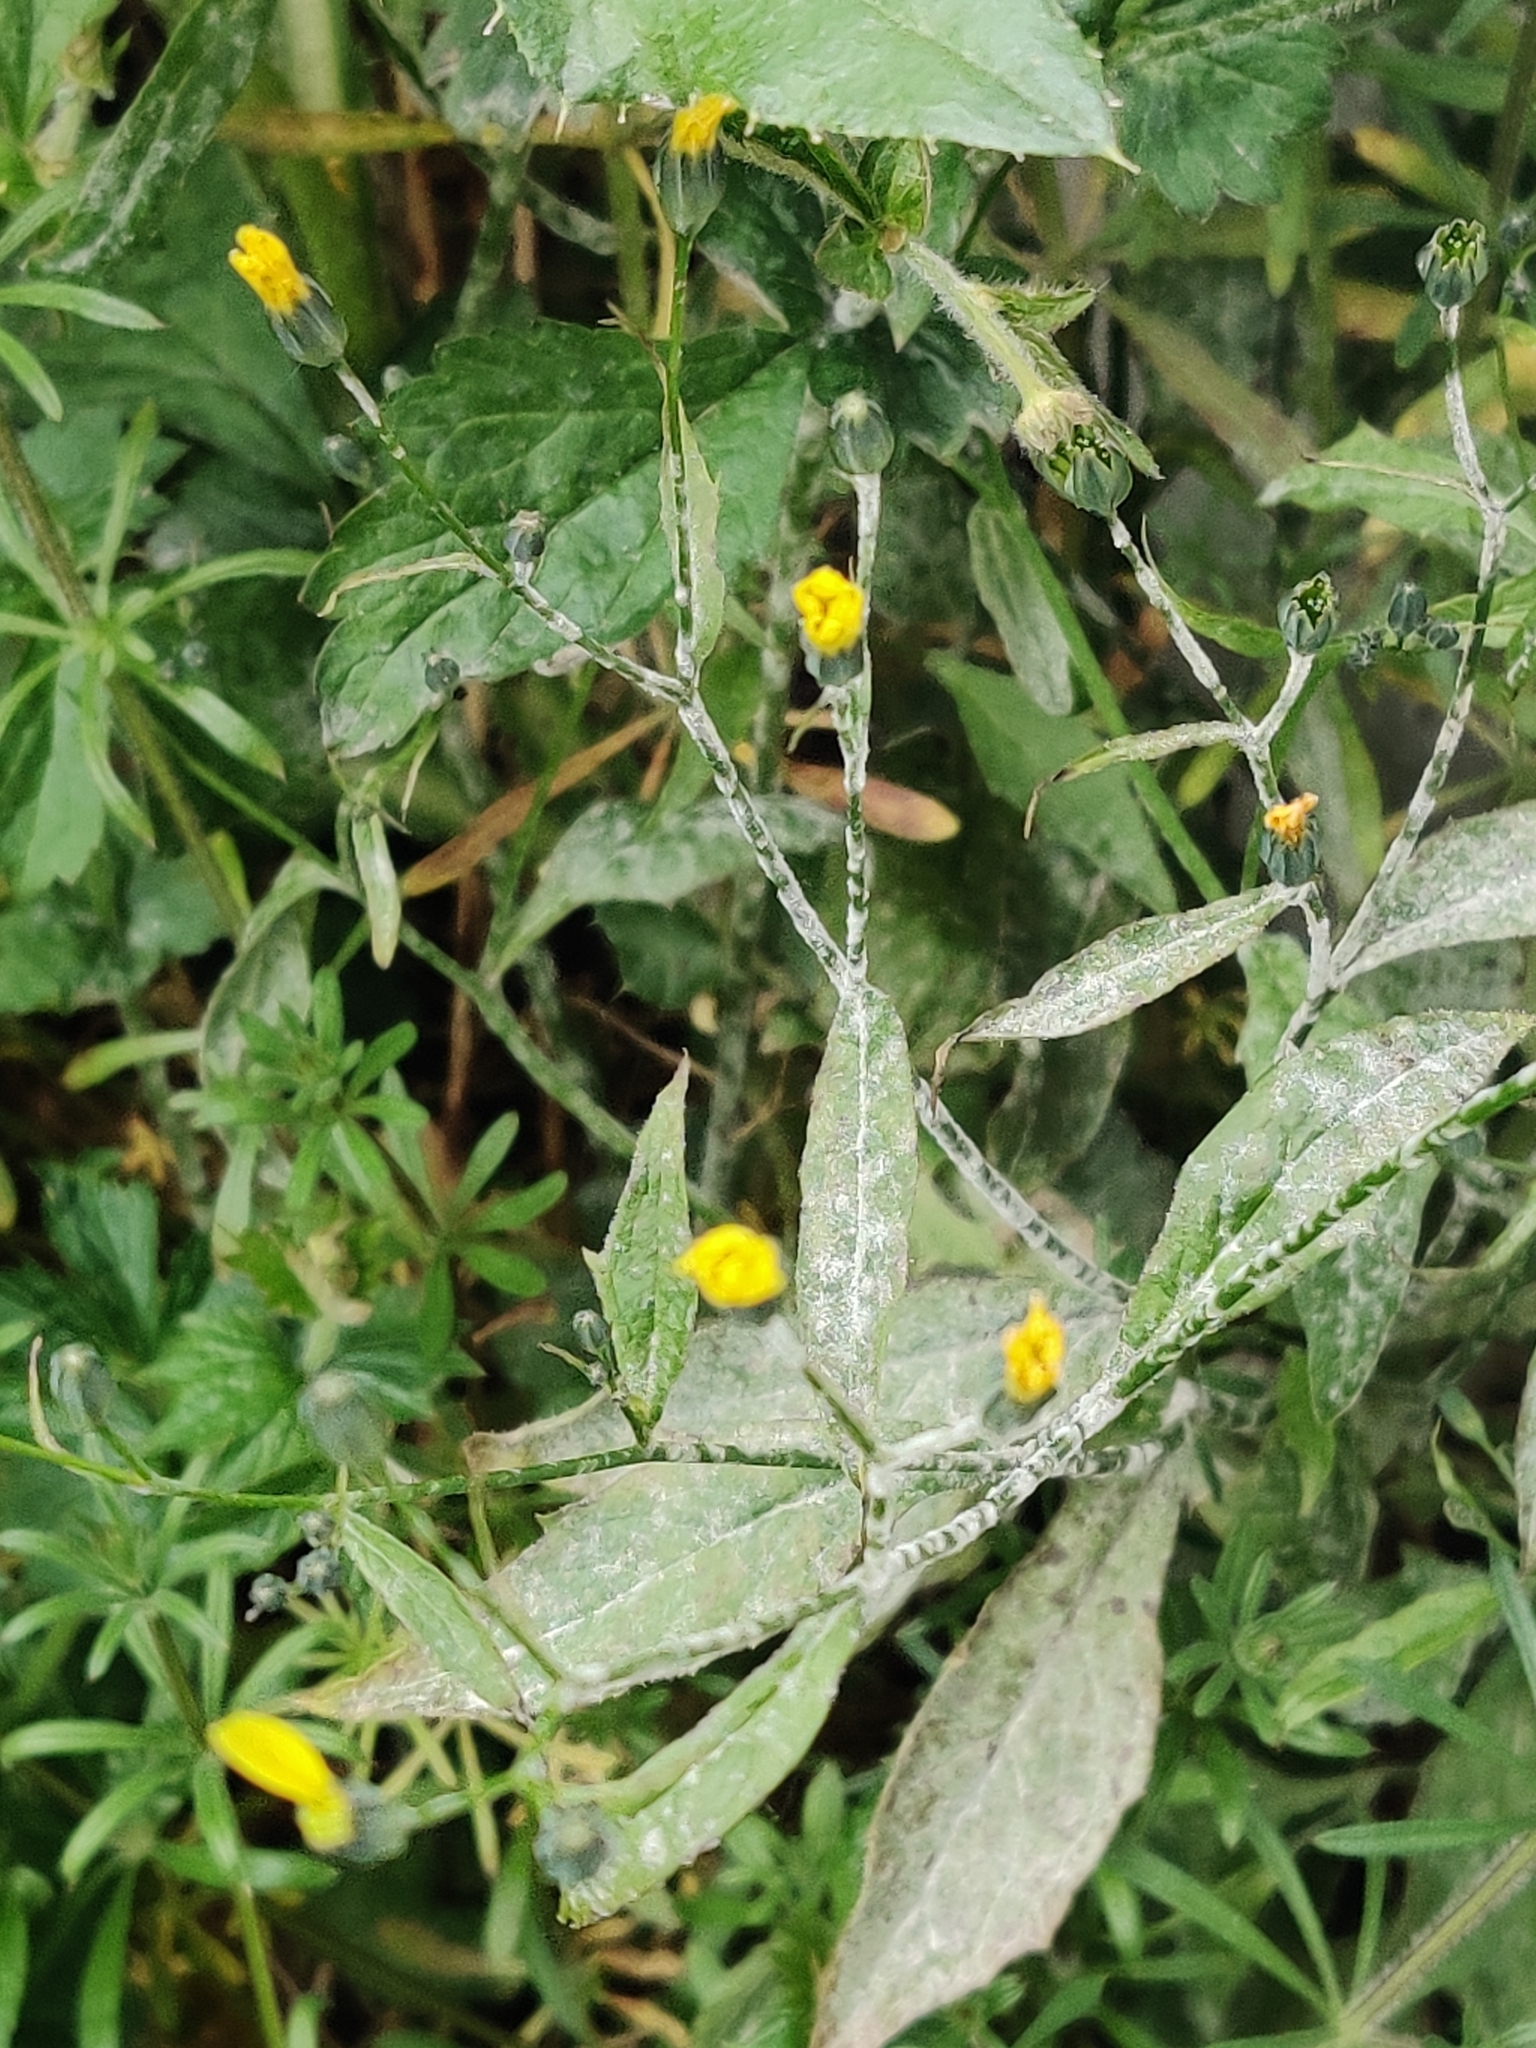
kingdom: Plantae
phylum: Tracheophyta
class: Magnoliopsida
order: Asterales
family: Asteraceae
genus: Lapsana
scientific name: Lapsana communis
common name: Nipplewort
